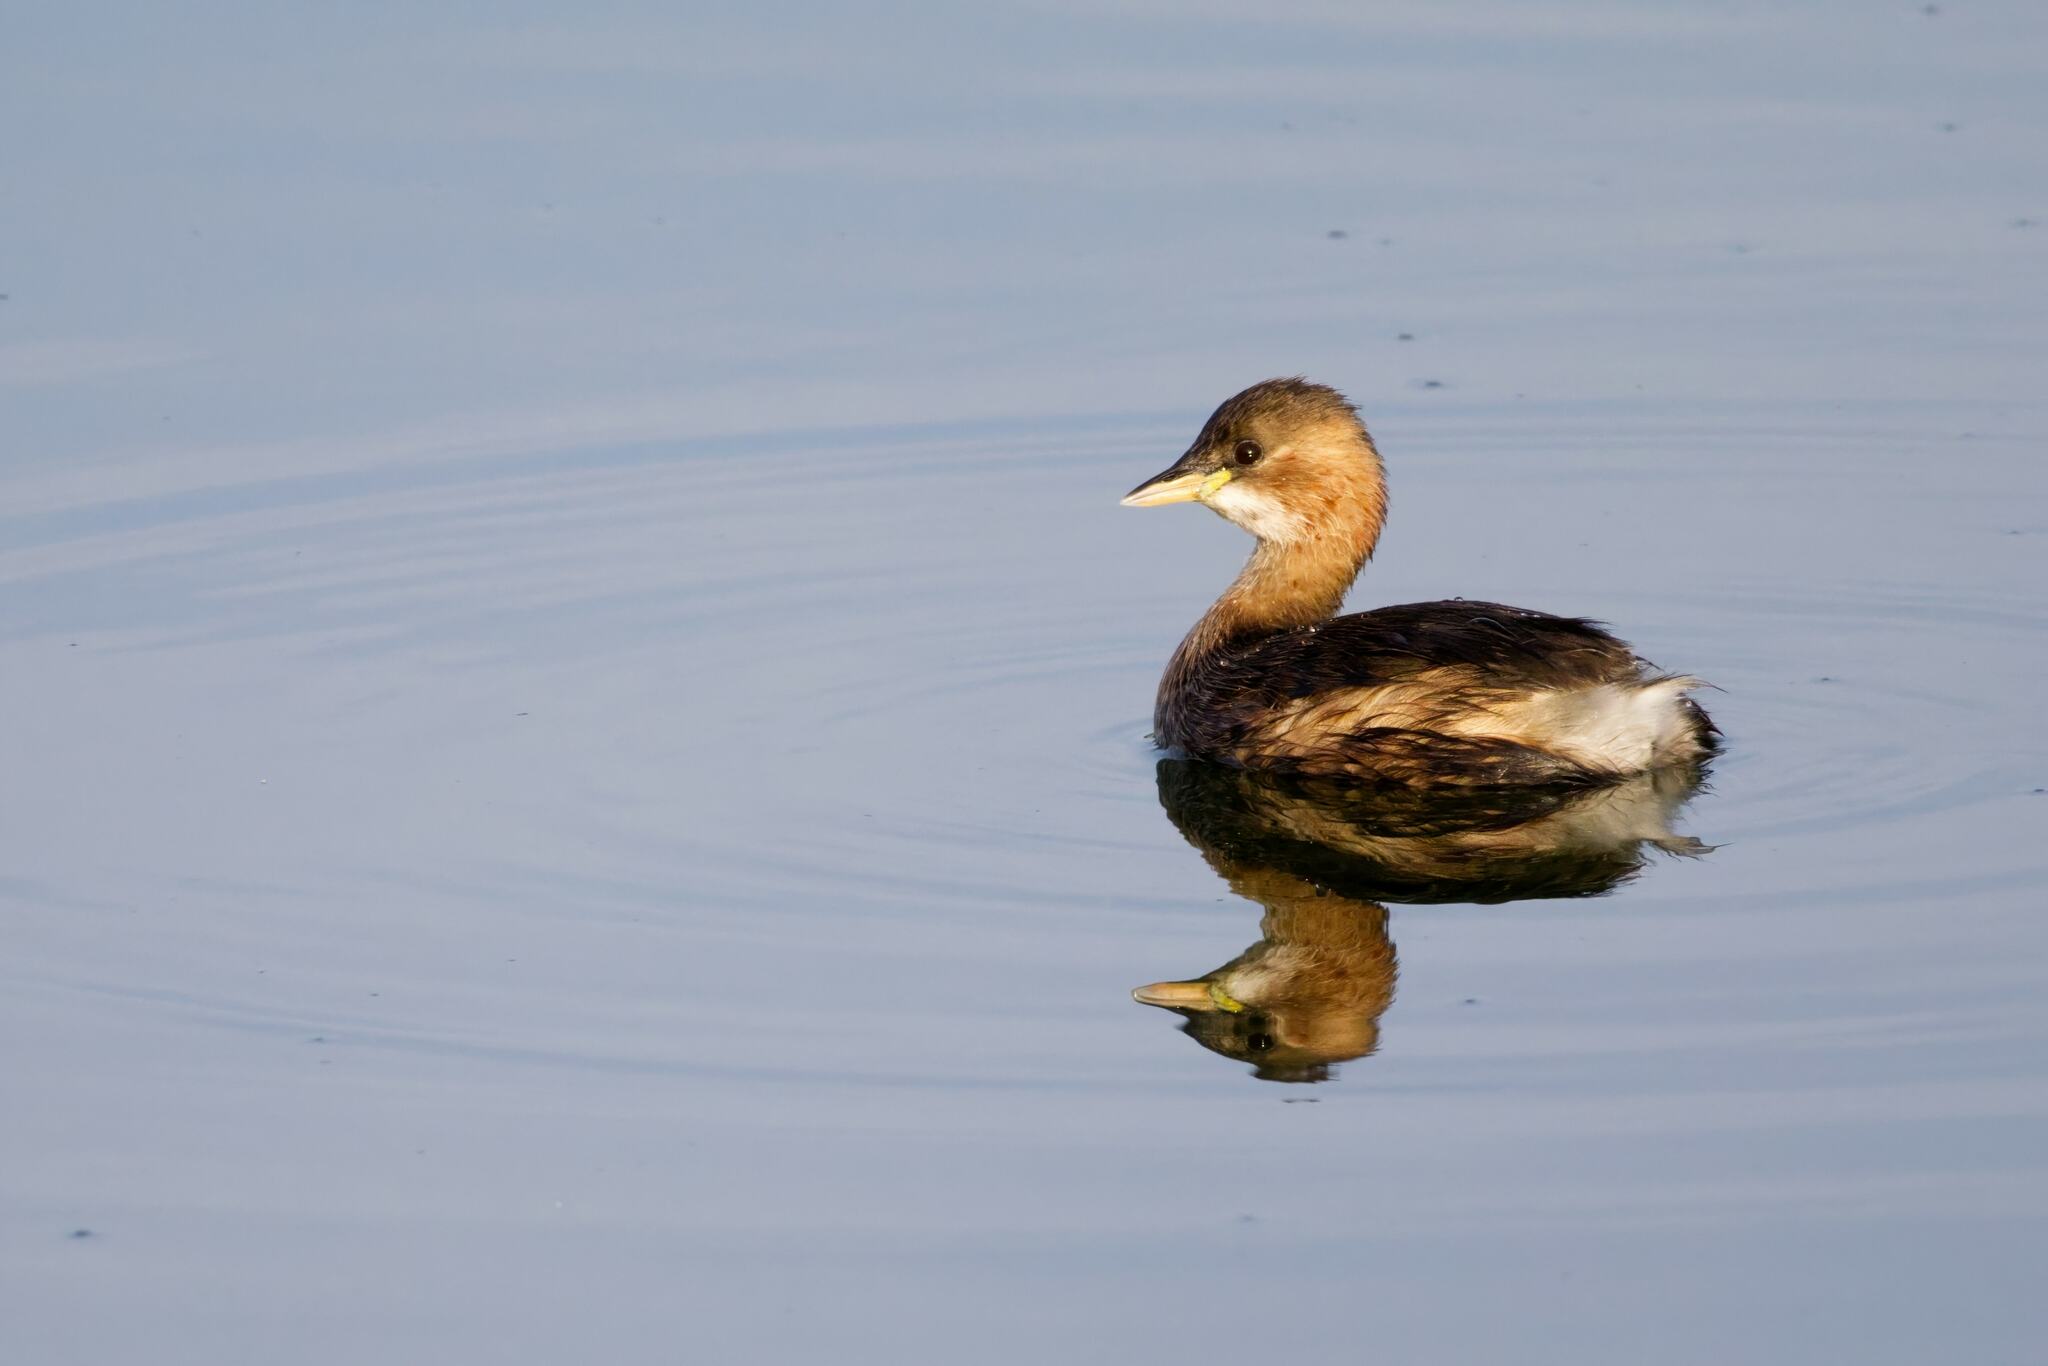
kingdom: Animalia
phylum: Chordata
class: Aves
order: Podicipediformes
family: Podicipedidae
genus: Tachybaptus
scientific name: Tachybaptus ruficollis
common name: Little grebe
